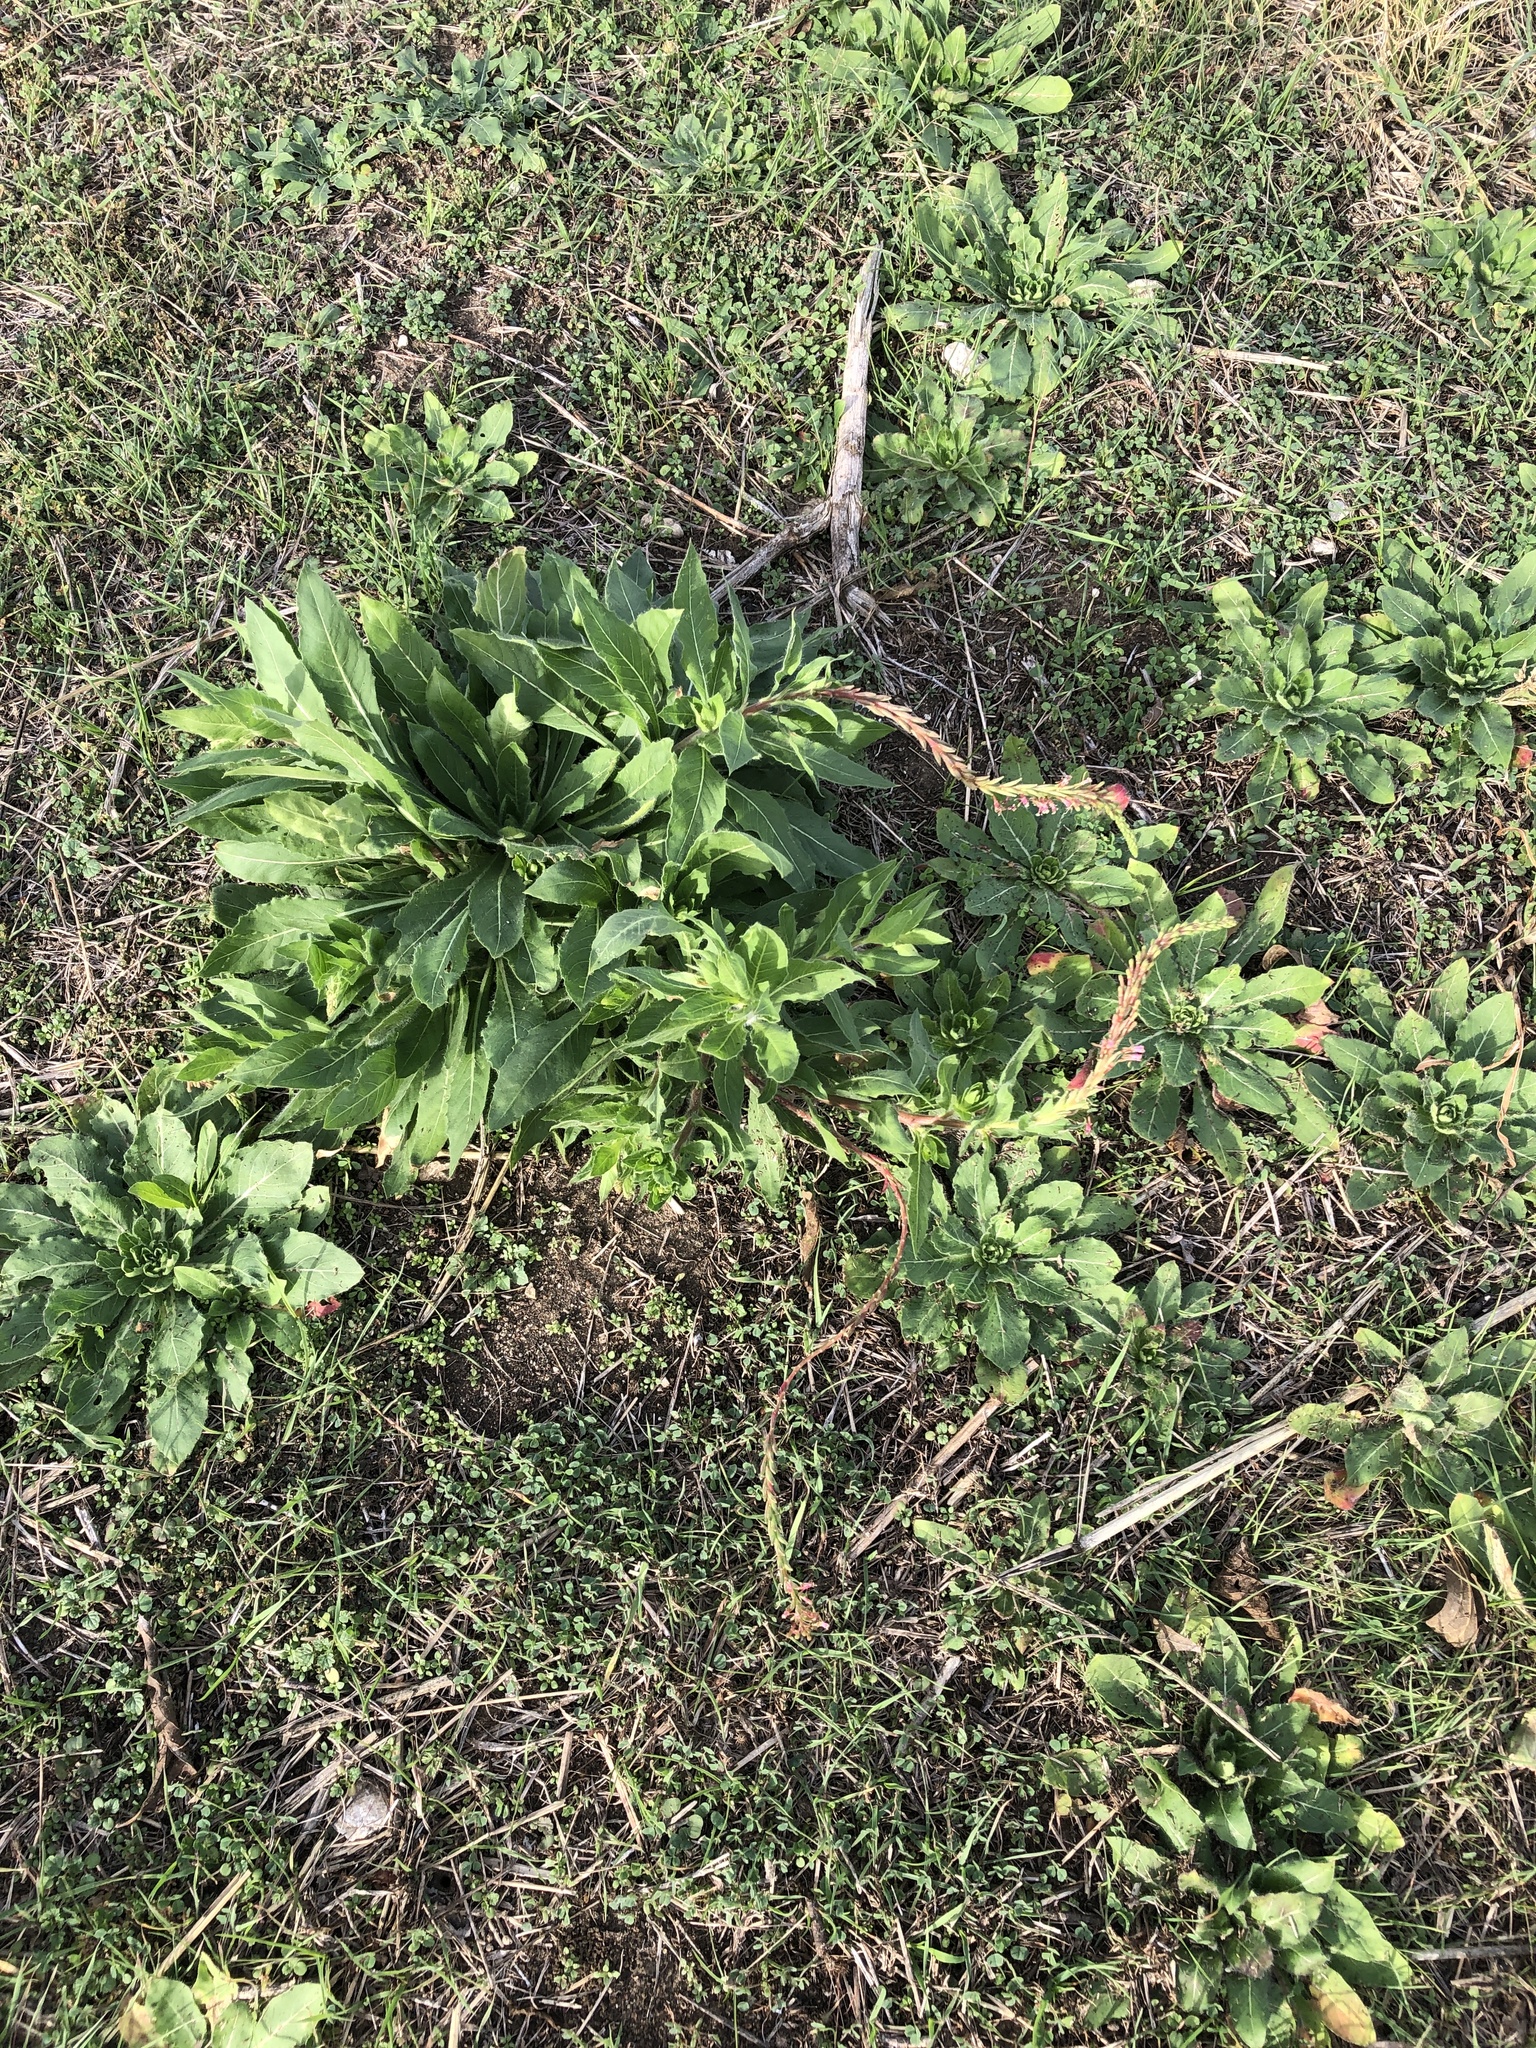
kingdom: Plantae
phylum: Tracheophyta
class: Magnoliopsida
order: Myrtales
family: Onagraceae
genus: Oenothera
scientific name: Oenothera curtiflora
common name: Velvetweed
